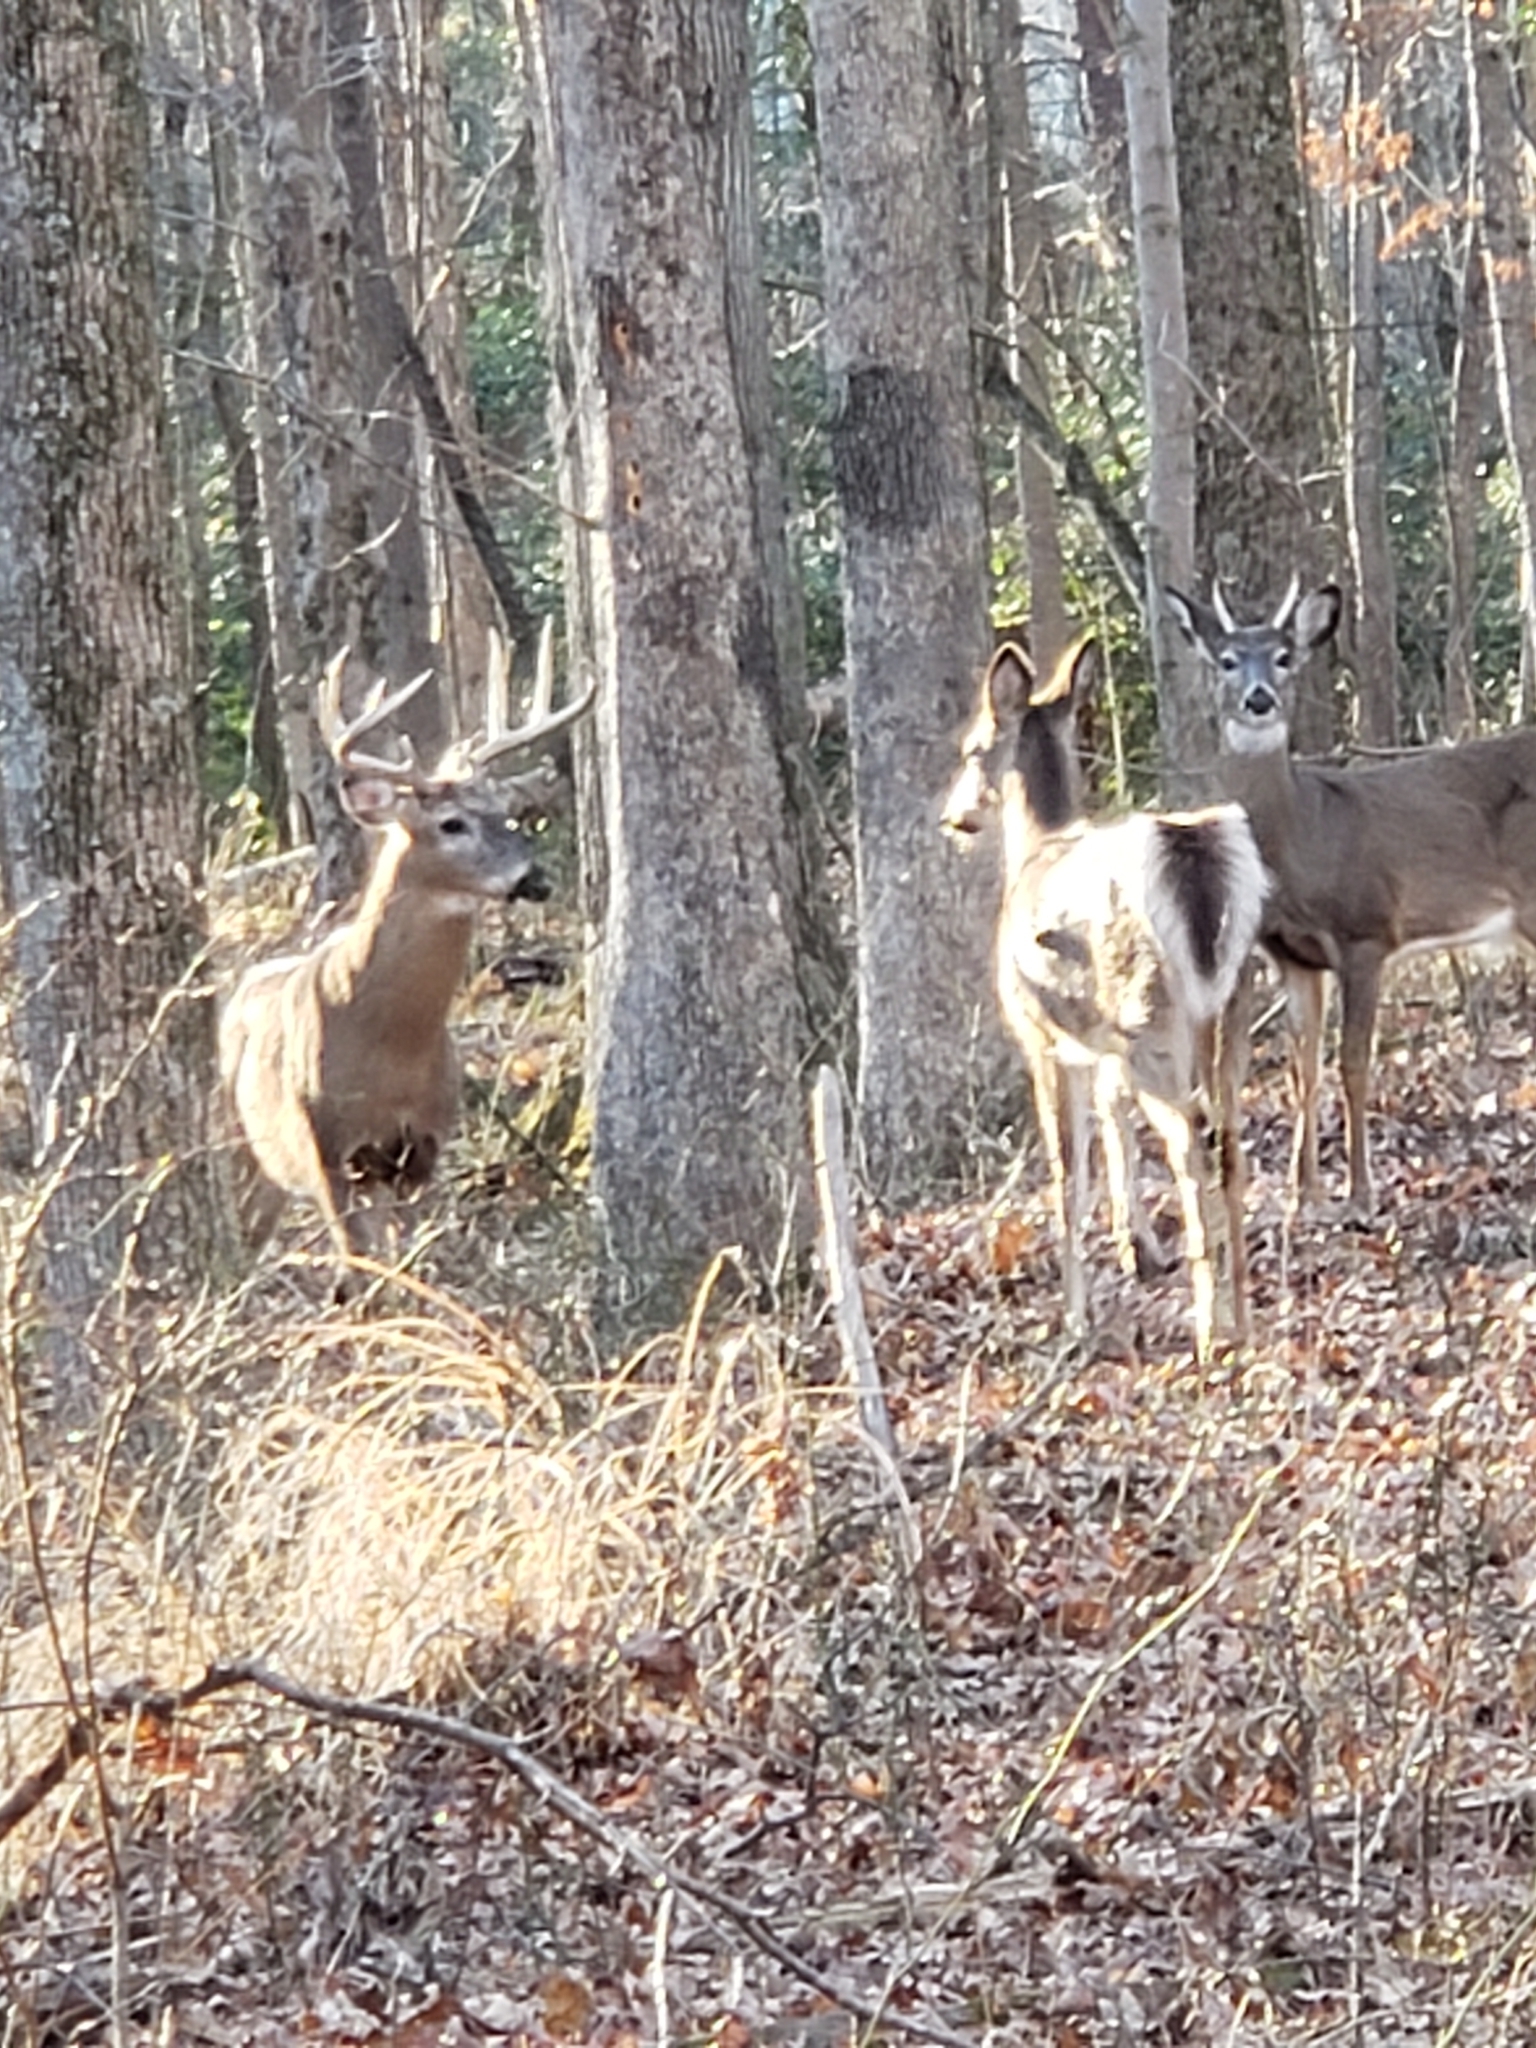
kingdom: Animalia
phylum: Chordata
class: Mammalia
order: Artiodactyla
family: Cervidae
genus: Odocoileus
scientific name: Odocoileus virginianus
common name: White-tailed deer
